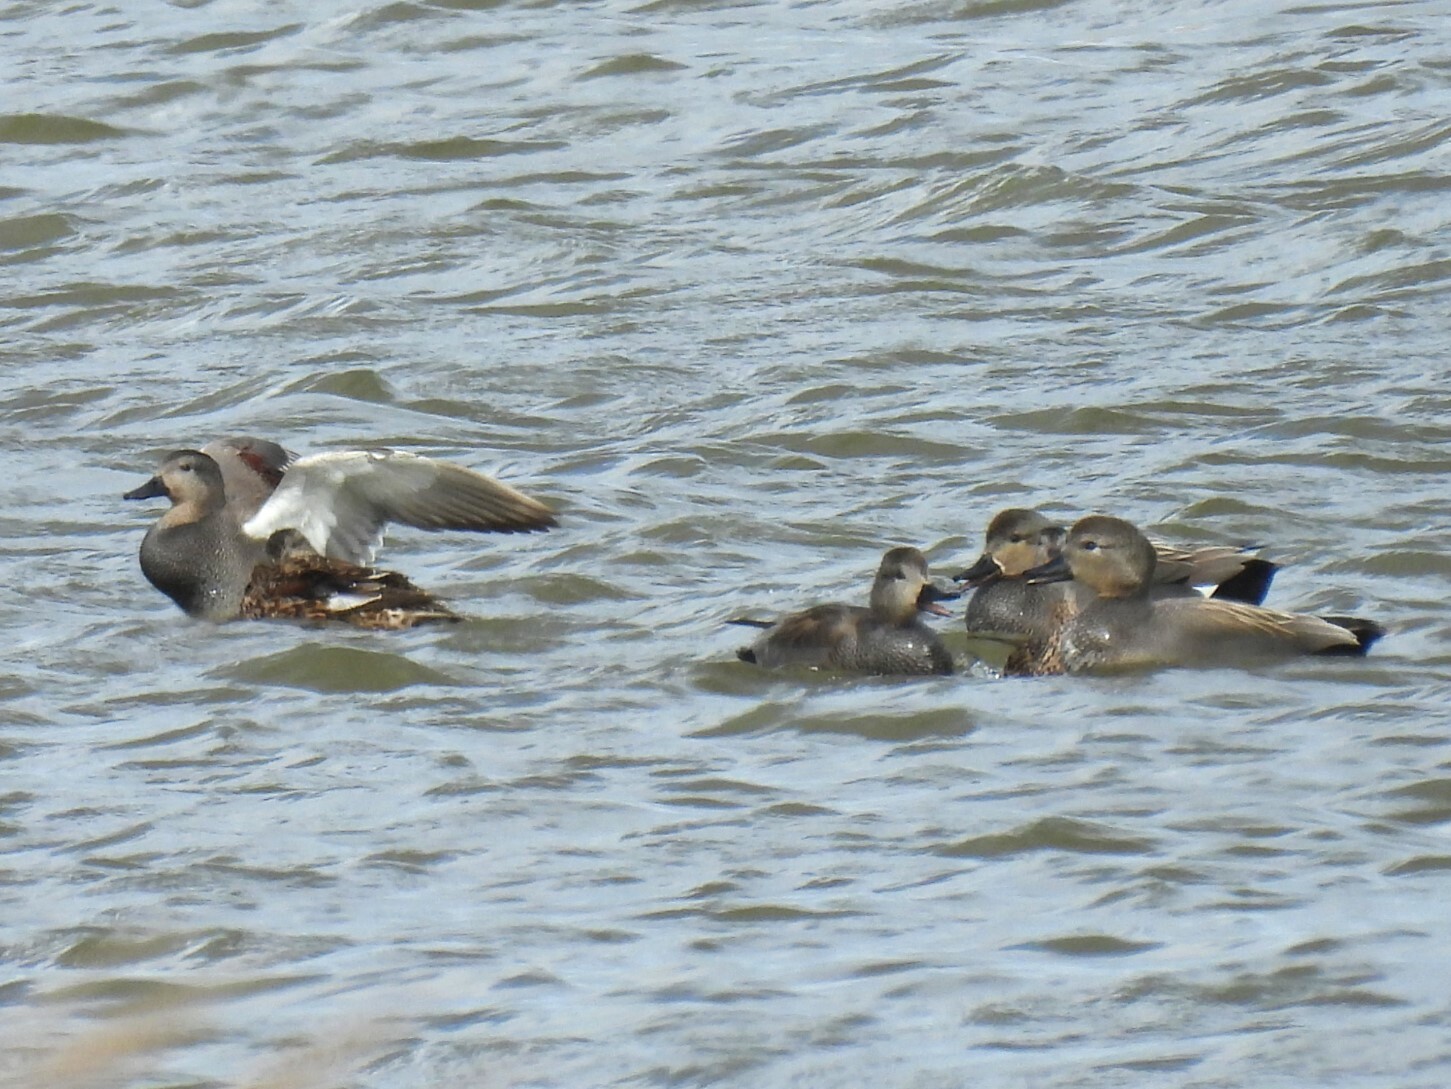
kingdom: Animalia
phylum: Chordata
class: Aves
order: Anseriformes
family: Anatidae
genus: Mareca
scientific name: Mareca strepera
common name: Gadwall
